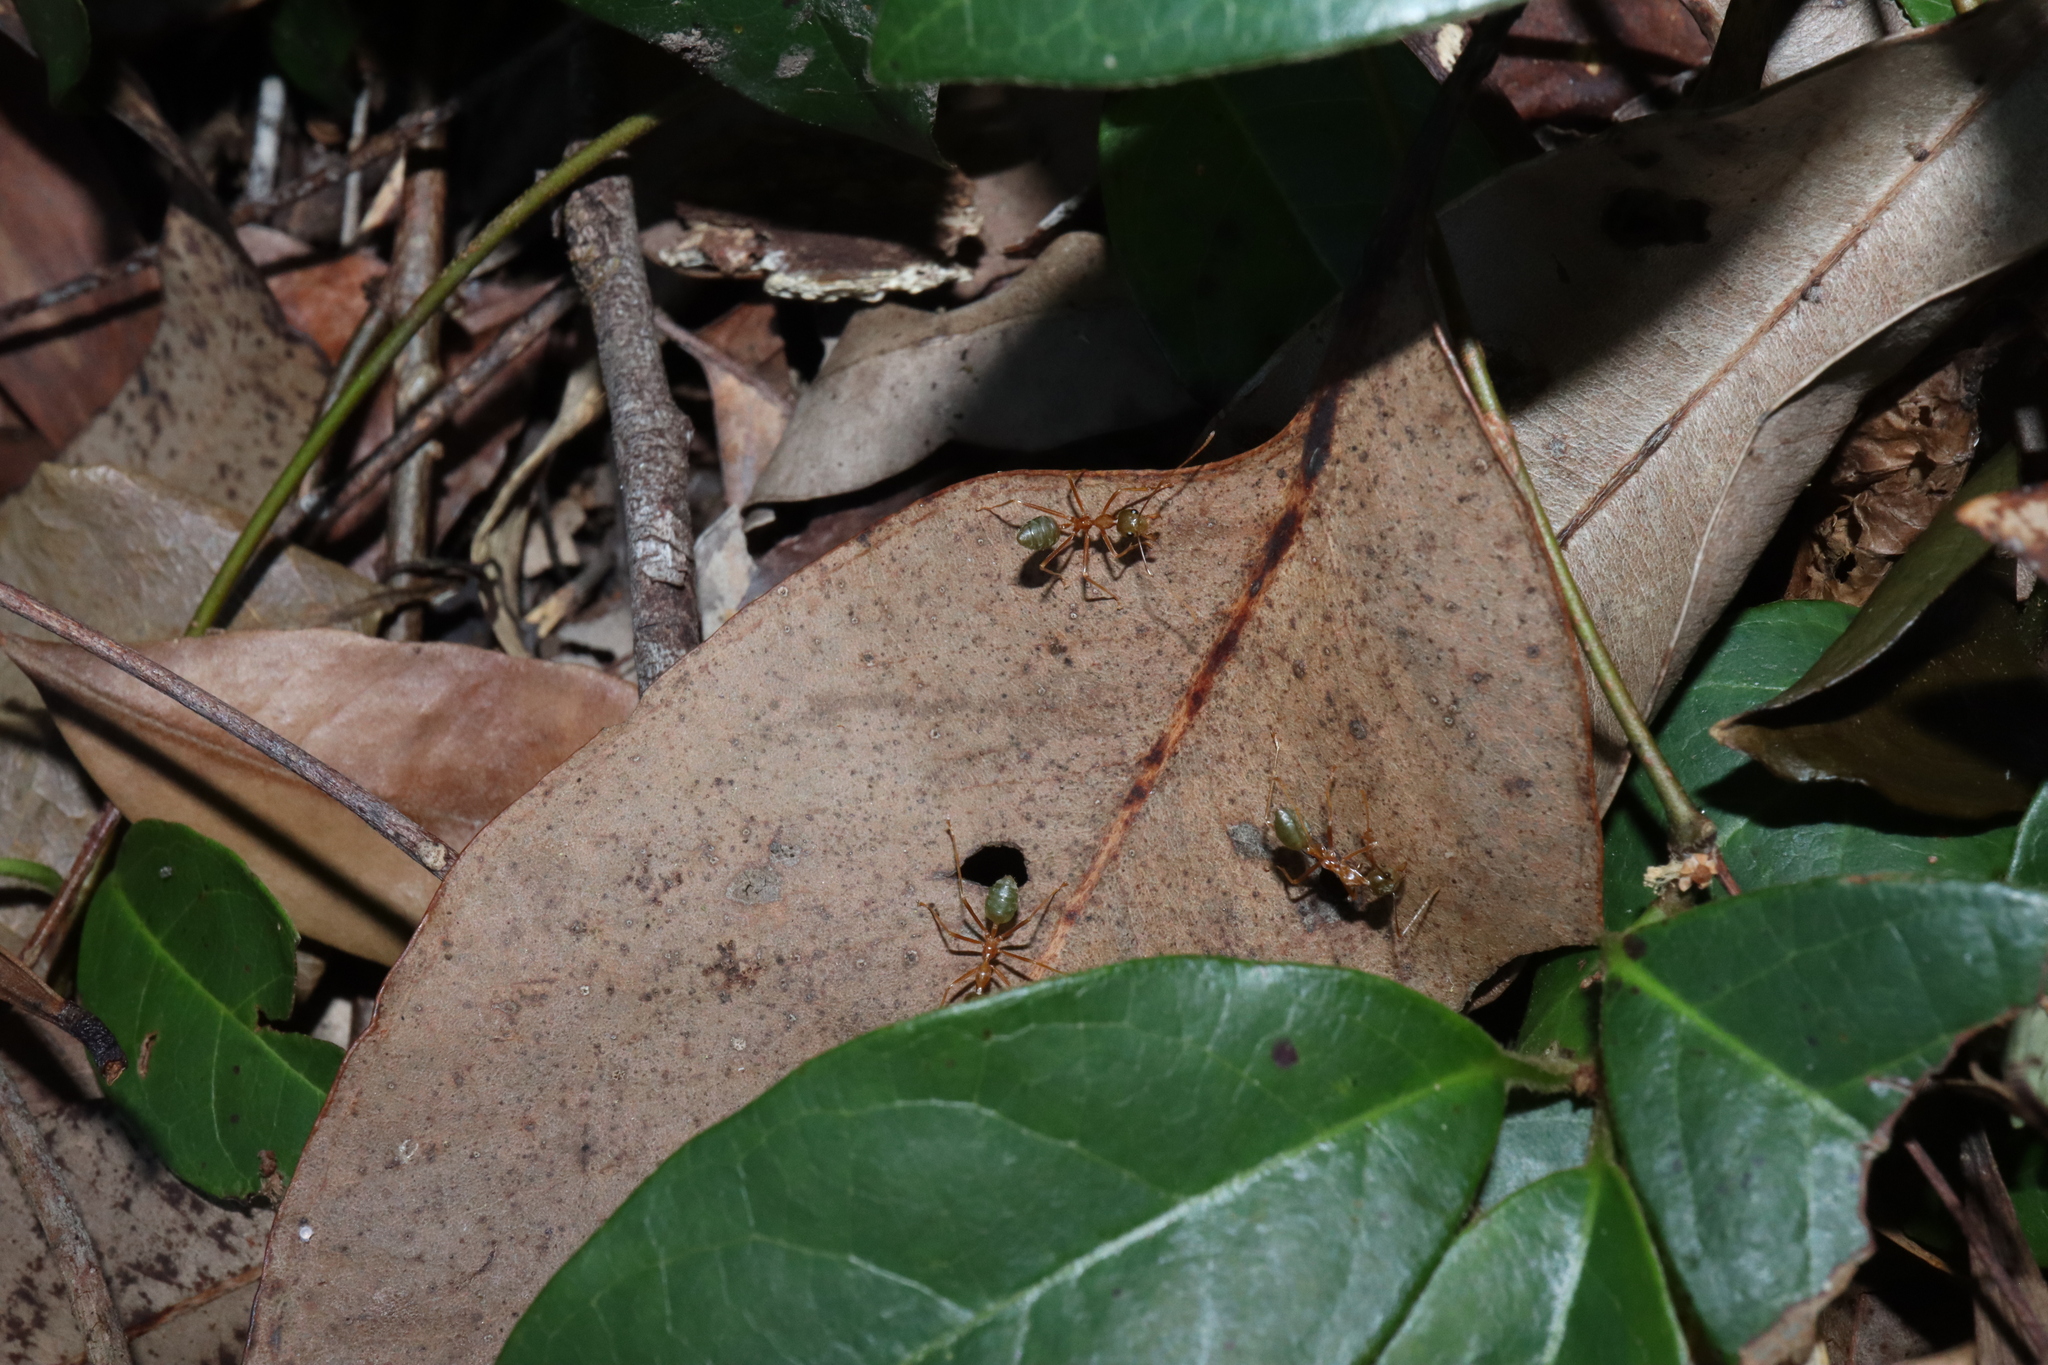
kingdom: Animalia
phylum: Arthropoda
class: Insecta
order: Hymenoptera
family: Formicidae
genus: Oecophylla
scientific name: Oecophylla smaragdina
